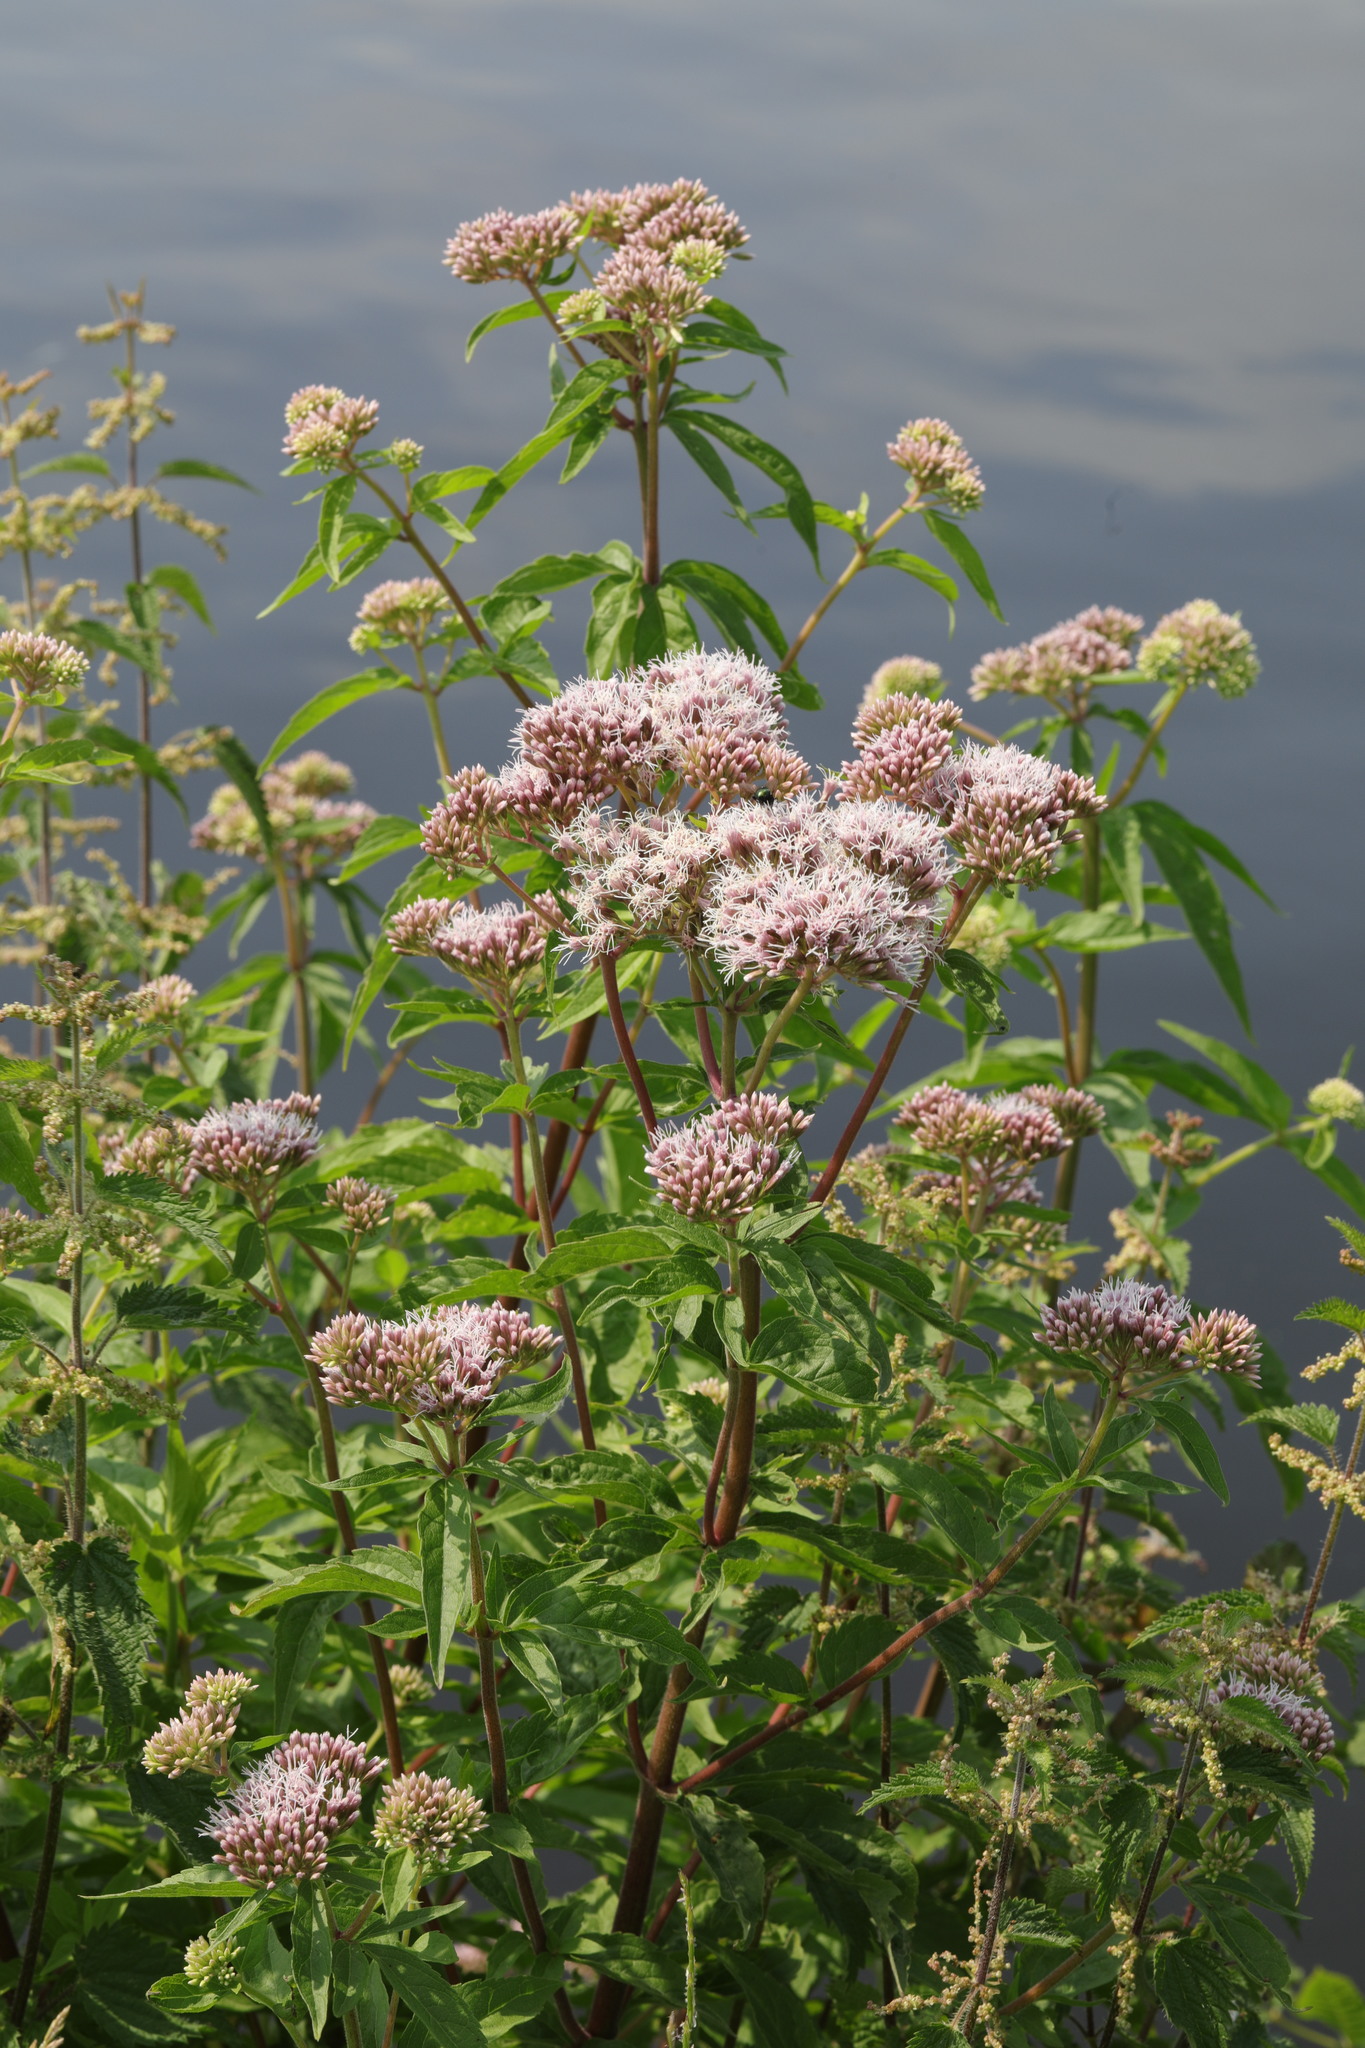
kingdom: Plantae
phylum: Tracheophyta
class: Magnoliopsida
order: Asterales
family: Asteraceae
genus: Eupatorium
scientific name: Eupatorium cannabinum
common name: Hemp-agrimony
